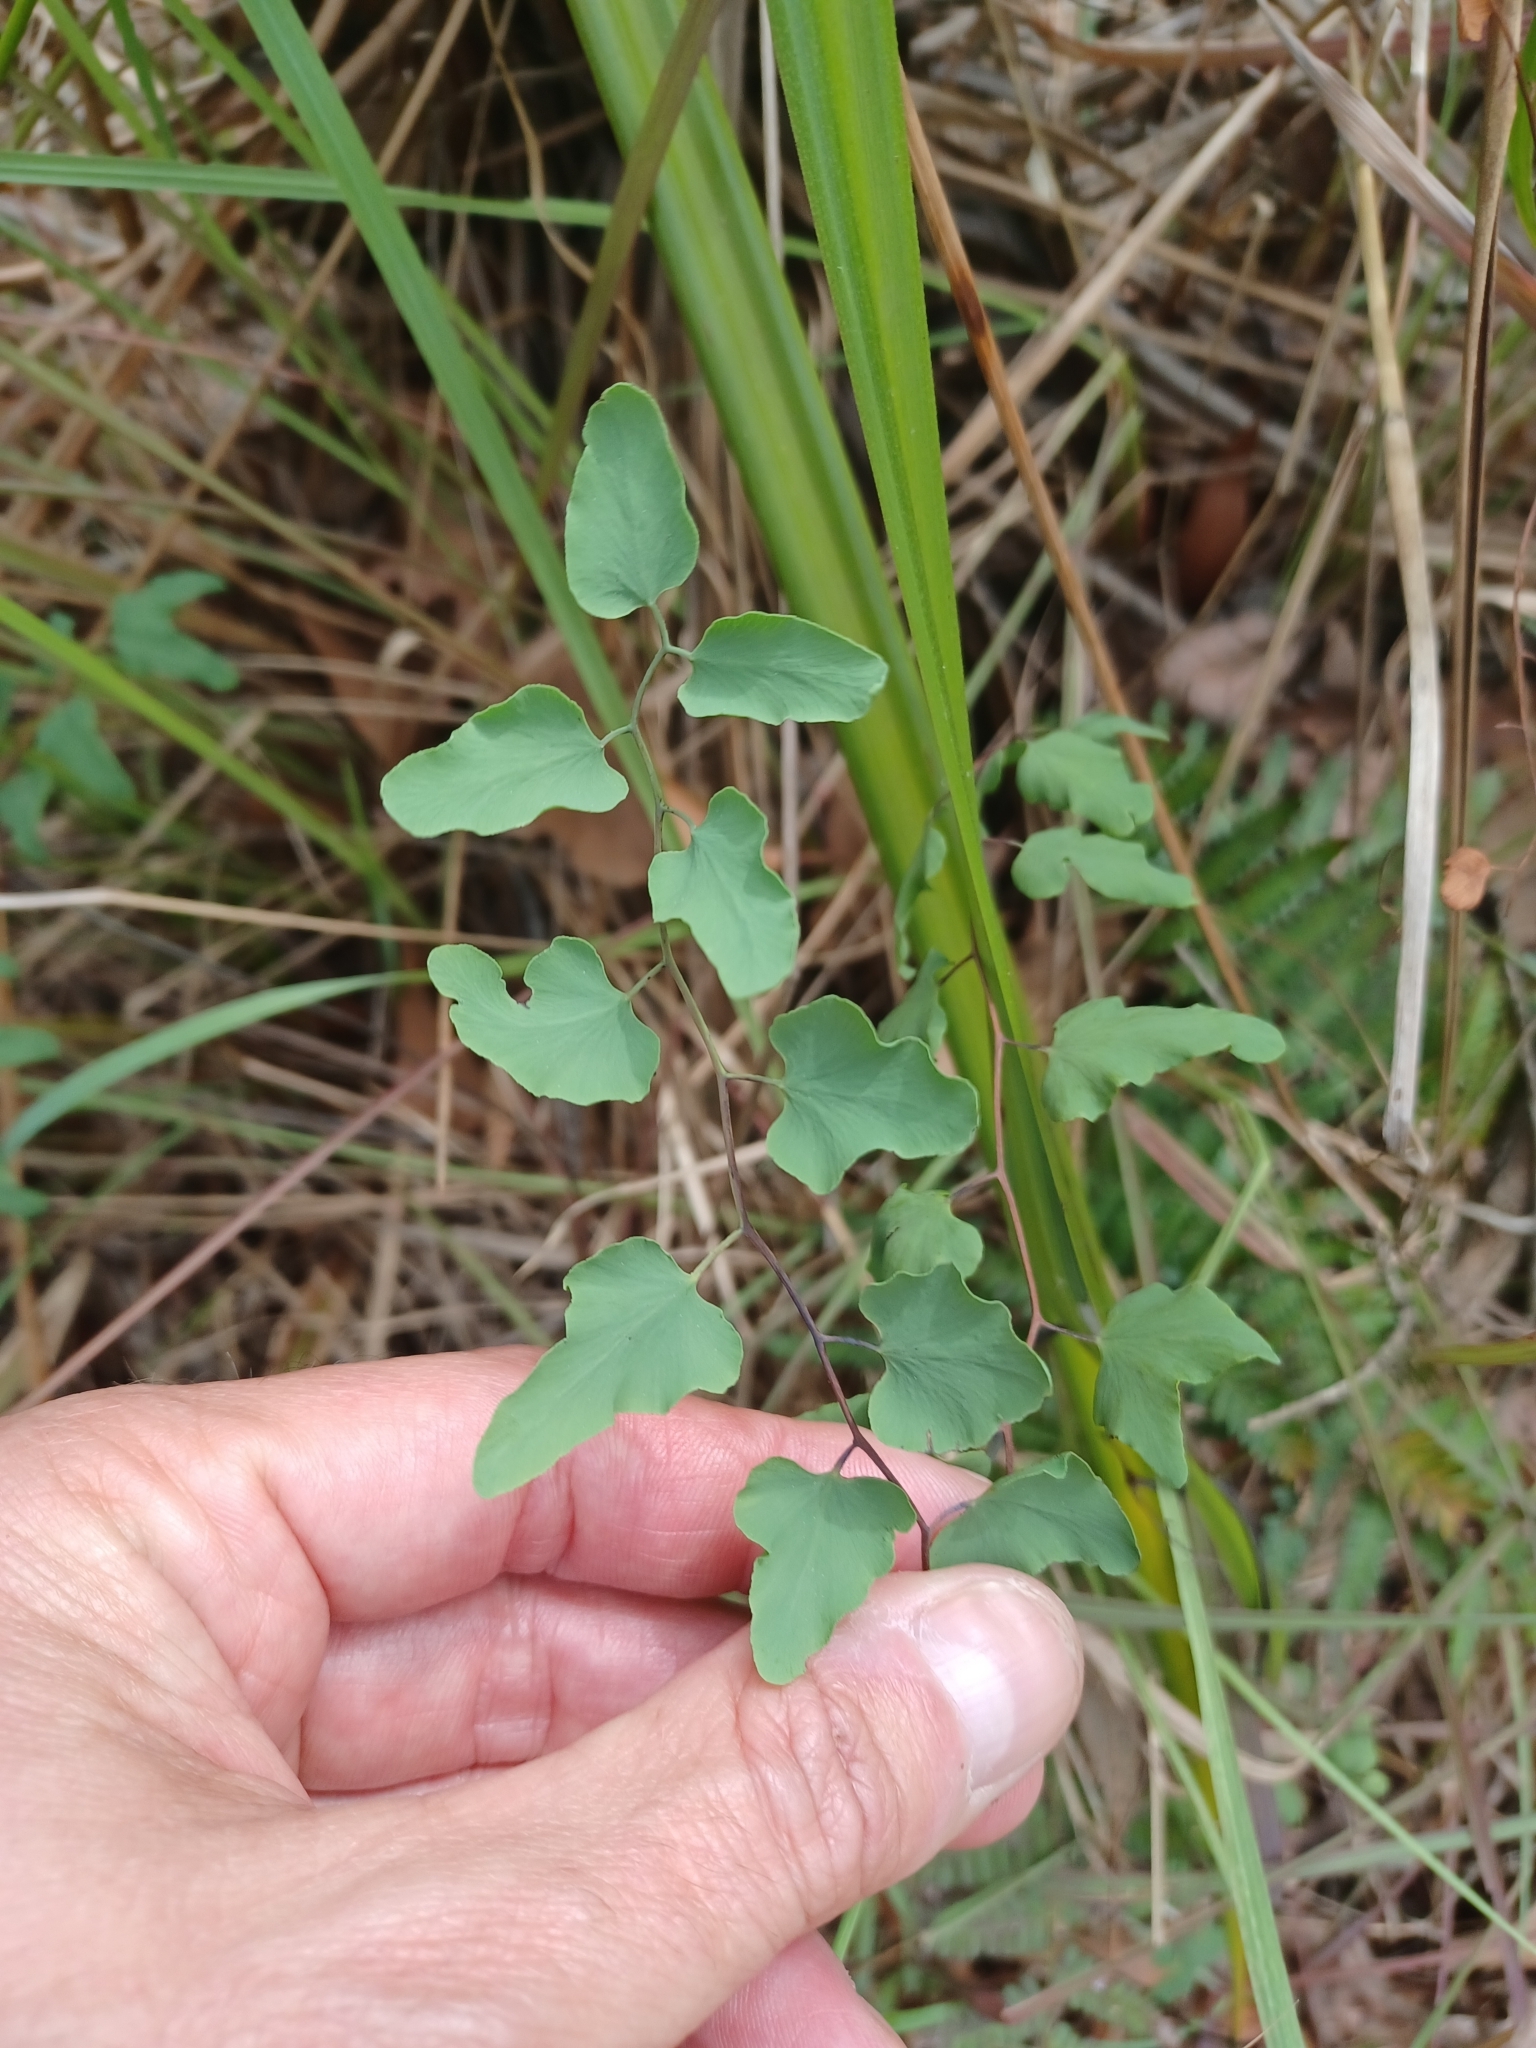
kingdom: Plantae
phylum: Tracheophyta
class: Polypodiopsida
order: Schizaeales
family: Lygodiaceae
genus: Lygodium
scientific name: Lygodium microphyllum
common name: Small-leaf climbing fern
